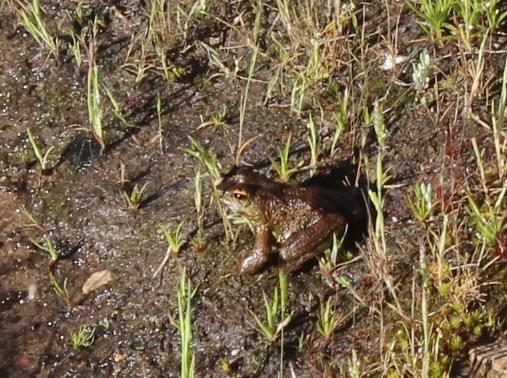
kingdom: Animalia
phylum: Chordata
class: Amphibia
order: Anura
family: Pyxicephalidae
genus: Amietia
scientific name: Amietia fuscigula
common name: Cape rana
